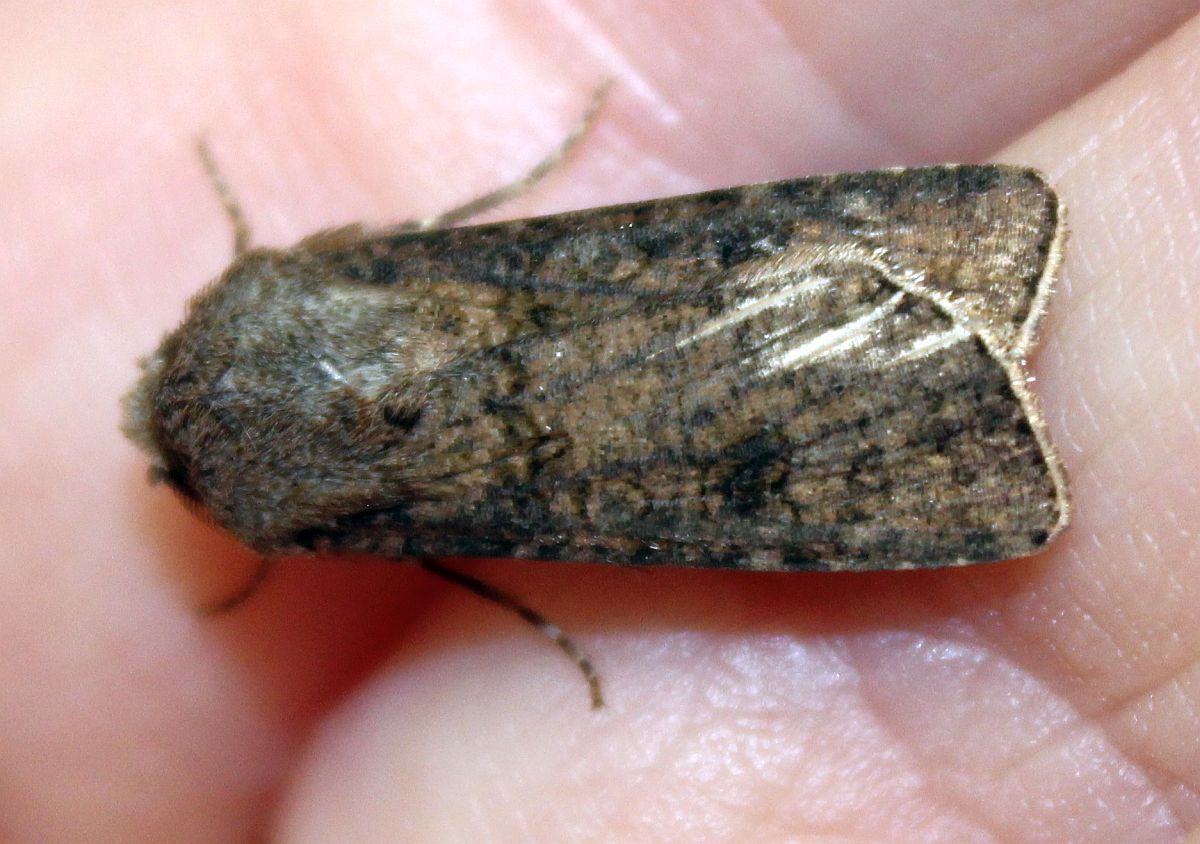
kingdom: Animalia
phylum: Arthropoda
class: Insecta
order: Lepidoptera
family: Noctuidae
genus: Agrotis
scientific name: Agrotis segetum
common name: Turnip moth
